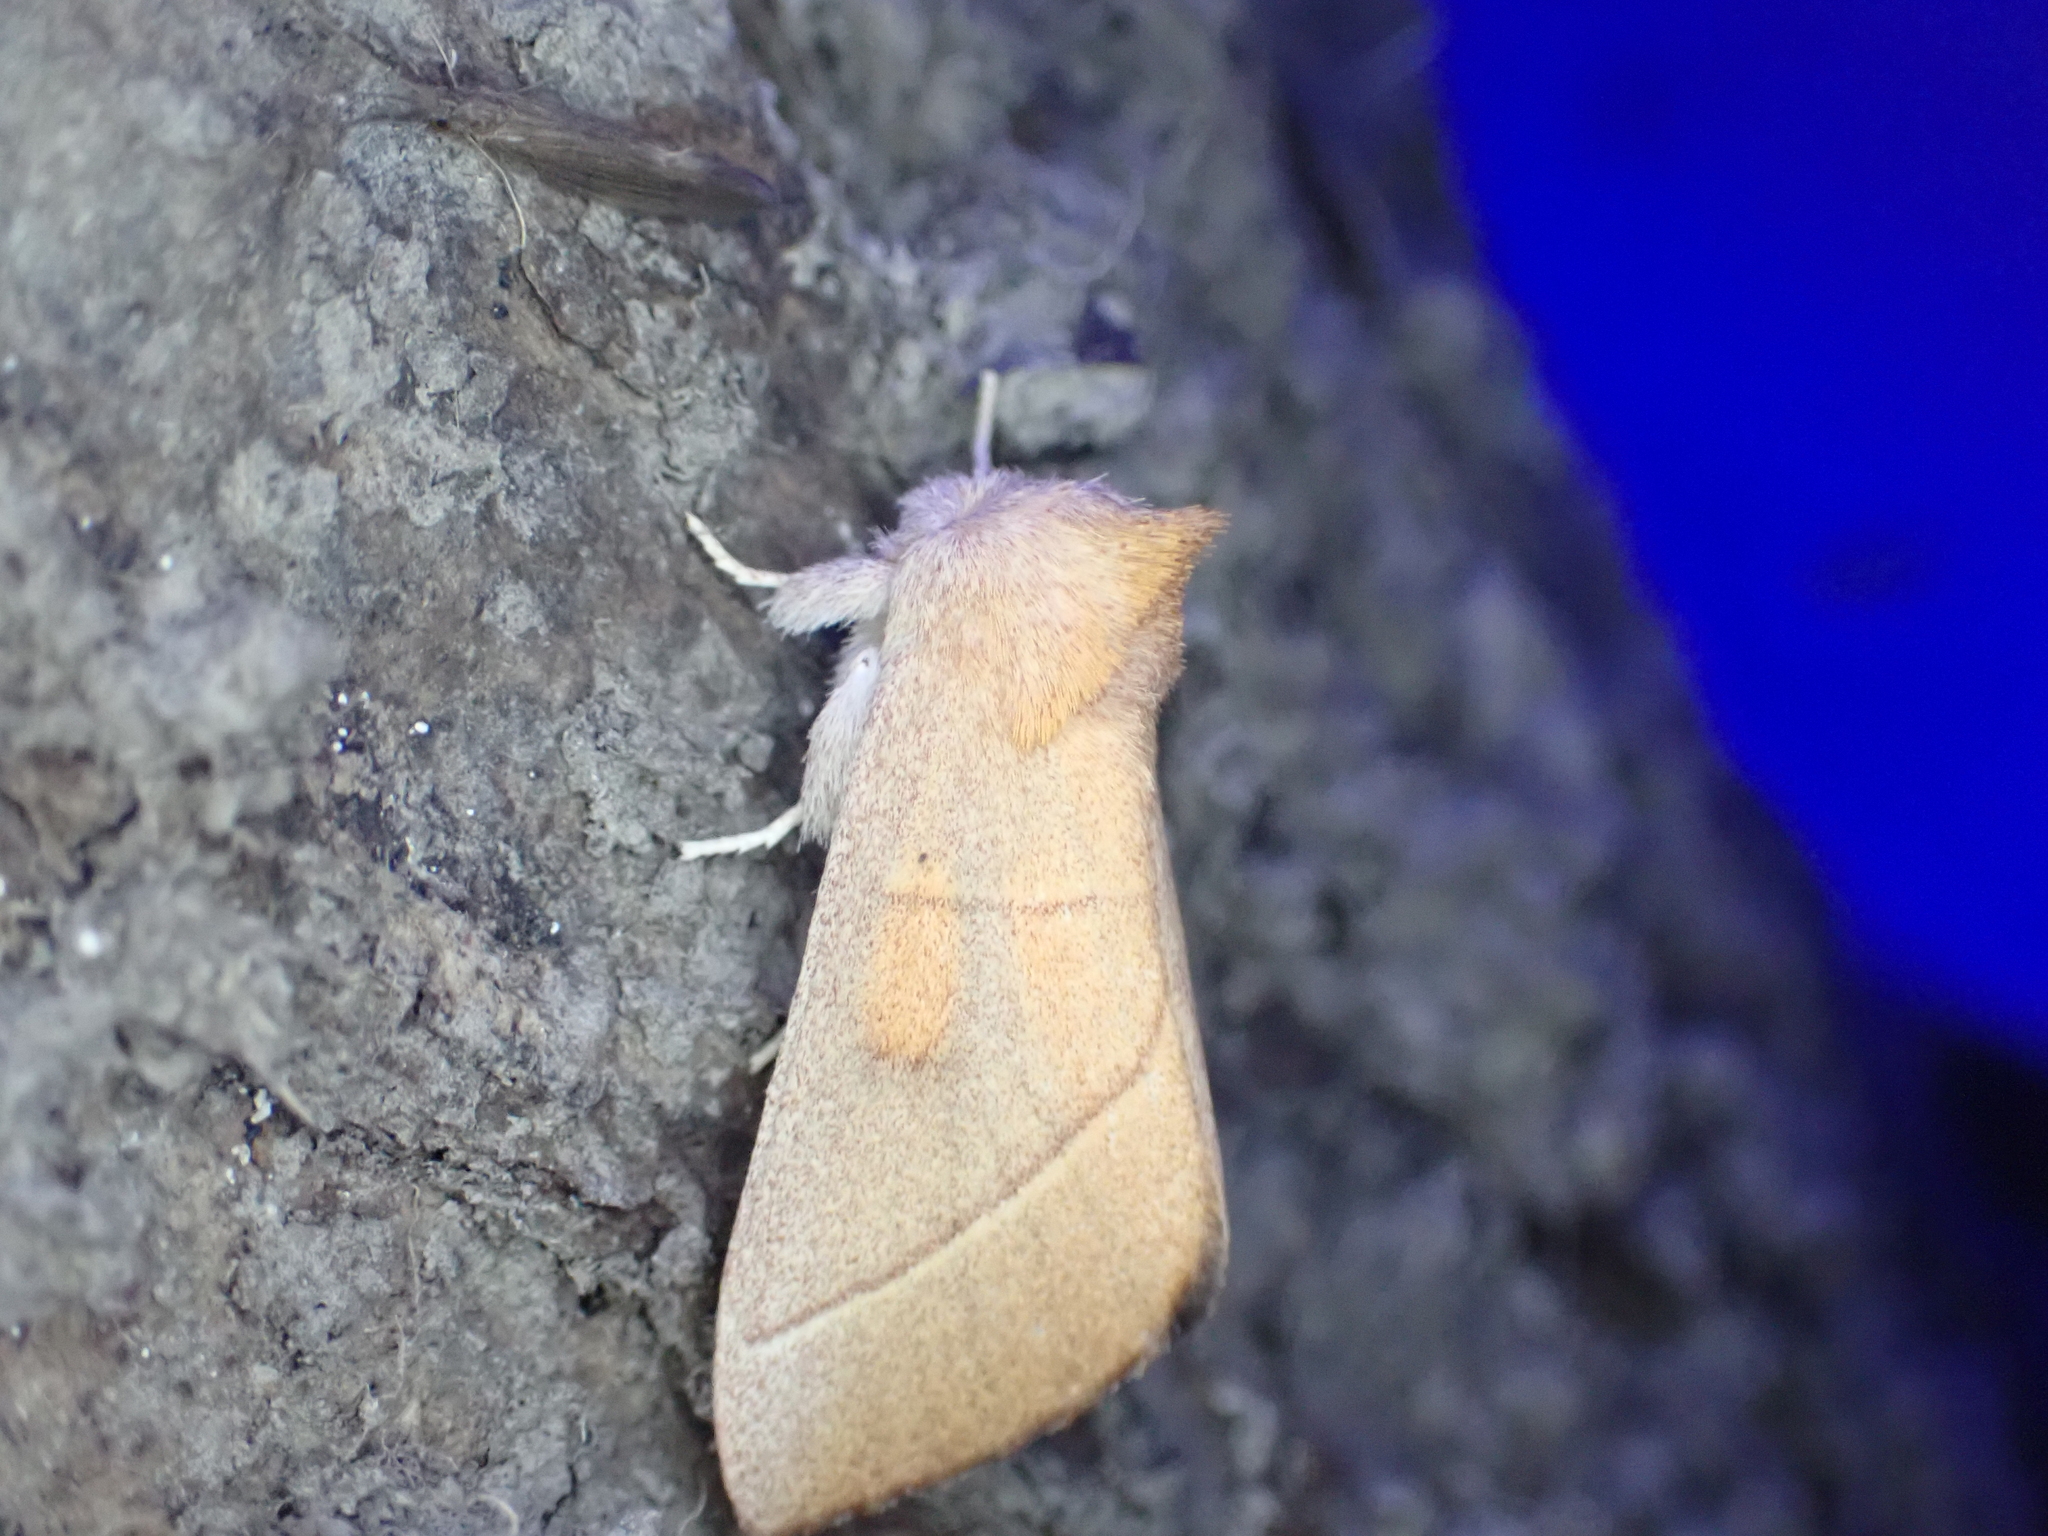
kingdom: Animalia
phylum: Arthropoda
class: Insecta
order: Lepidoptera
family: Notodontidae
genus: Nadata
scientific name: Nadata gibbosa
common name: White-dotted prominent
